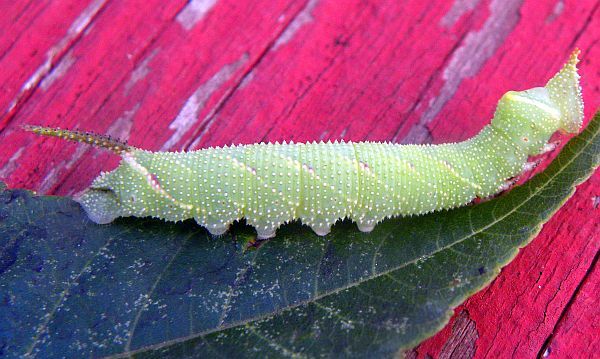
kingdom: Animalia
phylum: Arthropoda
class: Insecta
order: Lepidoptera
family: Sphingidae
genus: Amorpha
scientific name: Amorpha juglandis
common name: Walnut sphinx
